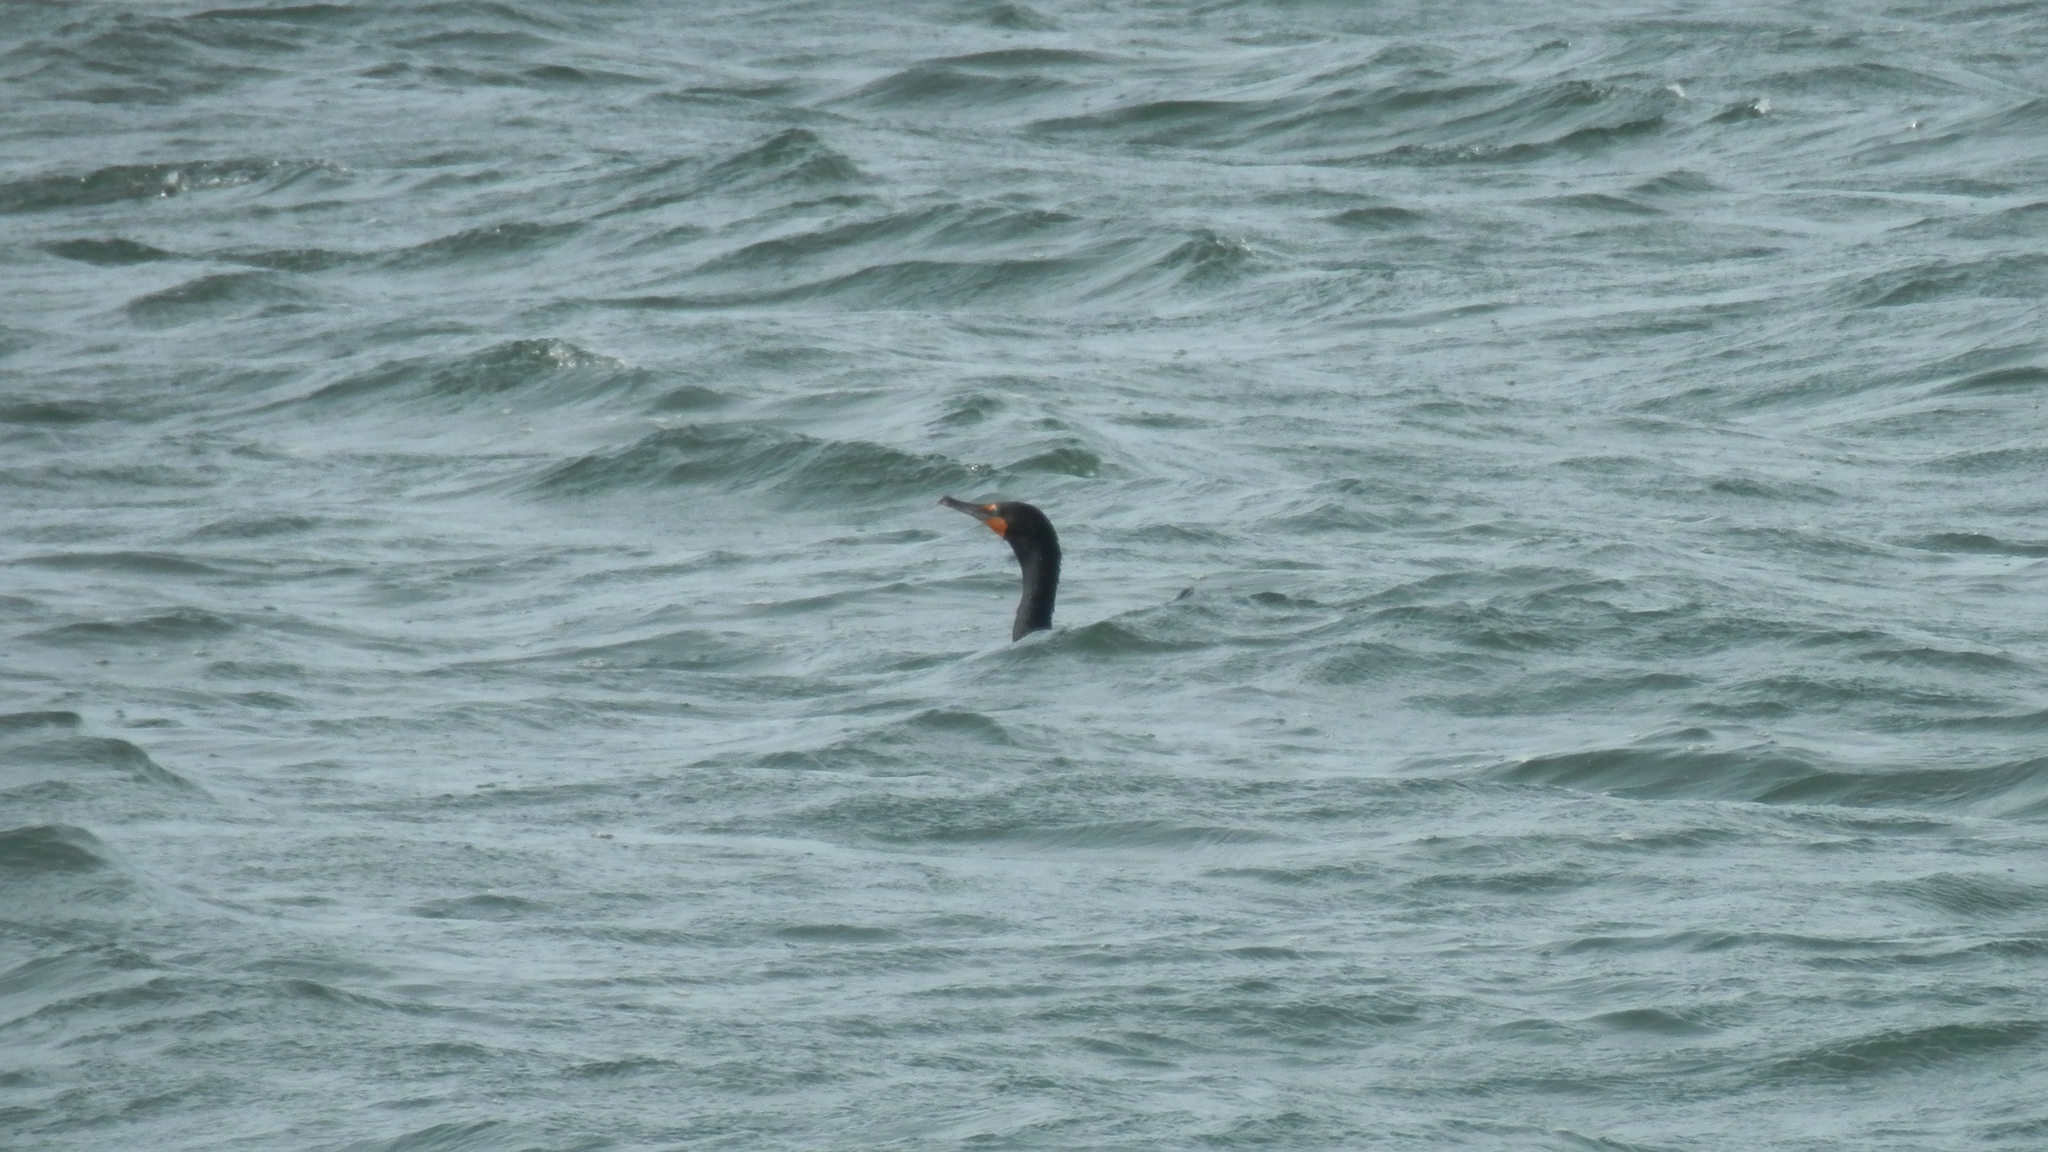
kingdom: Animalia
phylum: Chordata
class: Aves
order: Suliformes
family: Phalacrocoracidae
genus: Phalacrocorax
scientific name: Phalacrocorax auritus
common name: Double-crested cormorant
